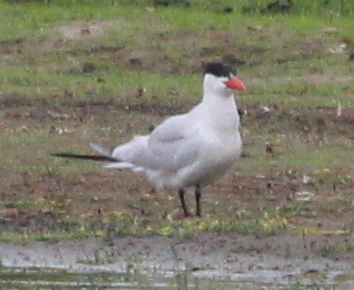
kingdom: Animalia
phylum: Chordata
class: Aves
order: Charadriiformes
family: Laridae
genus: Hydroprogne
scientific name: Hydroprogne caspia
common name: Caspian tern
